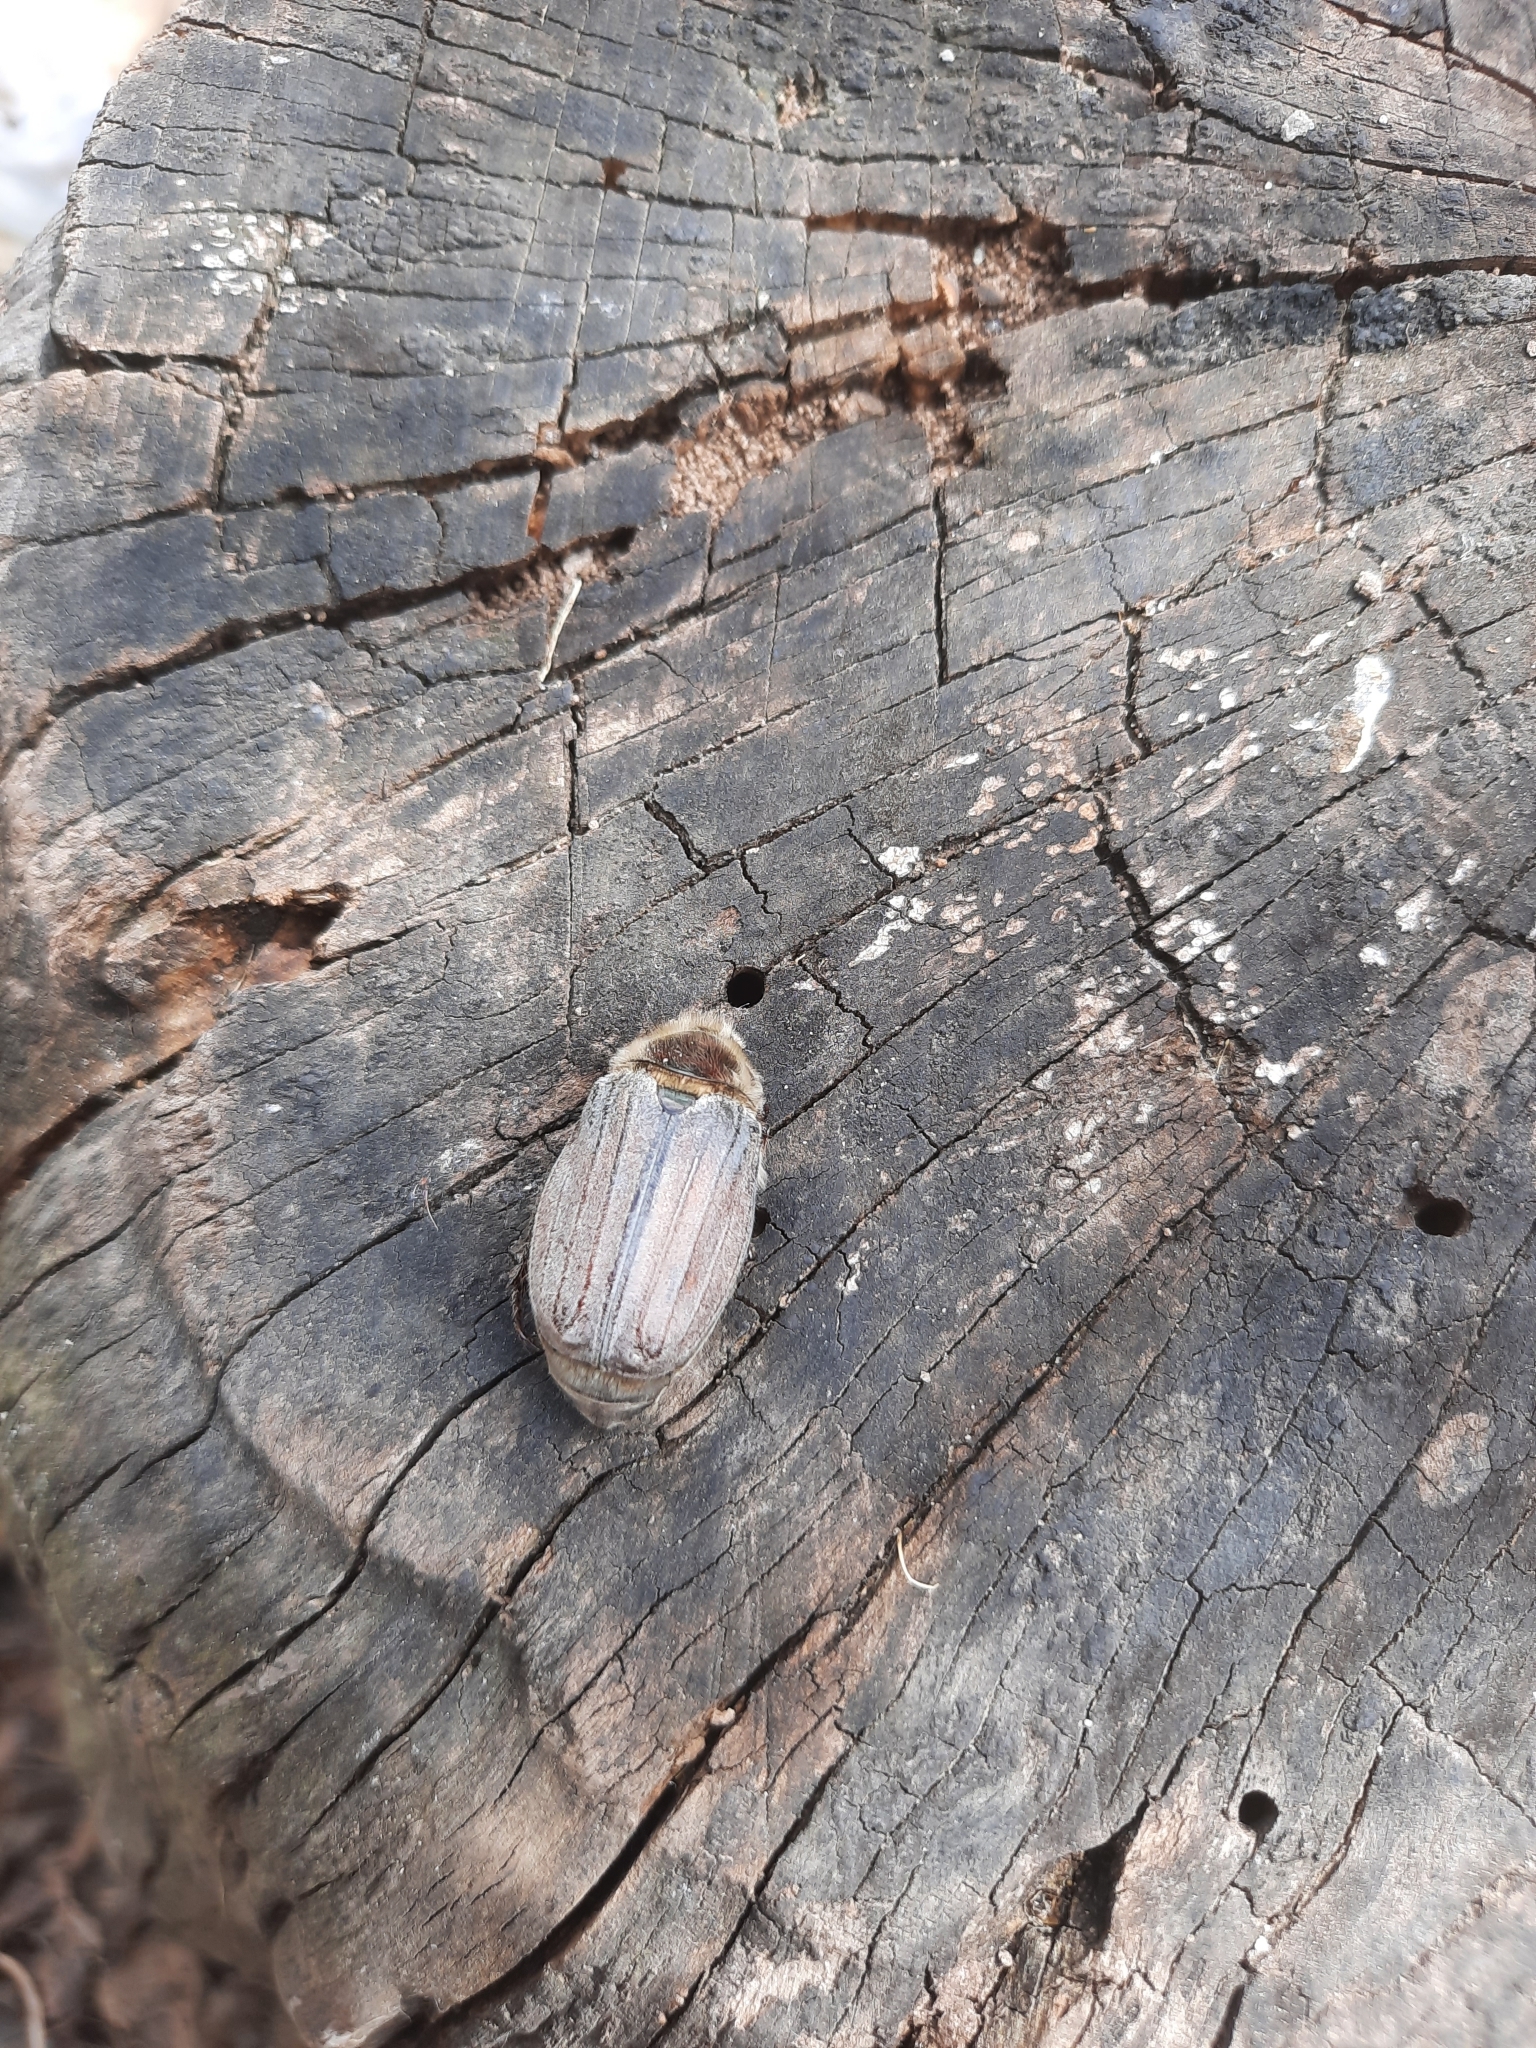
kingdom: Animalia
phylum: Arthropoda
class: Insecta
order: Coleoptera
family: Scarabaeidae
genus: Melolontha
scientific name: Melolontha hippocastani
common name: Chestnut cockchafer
